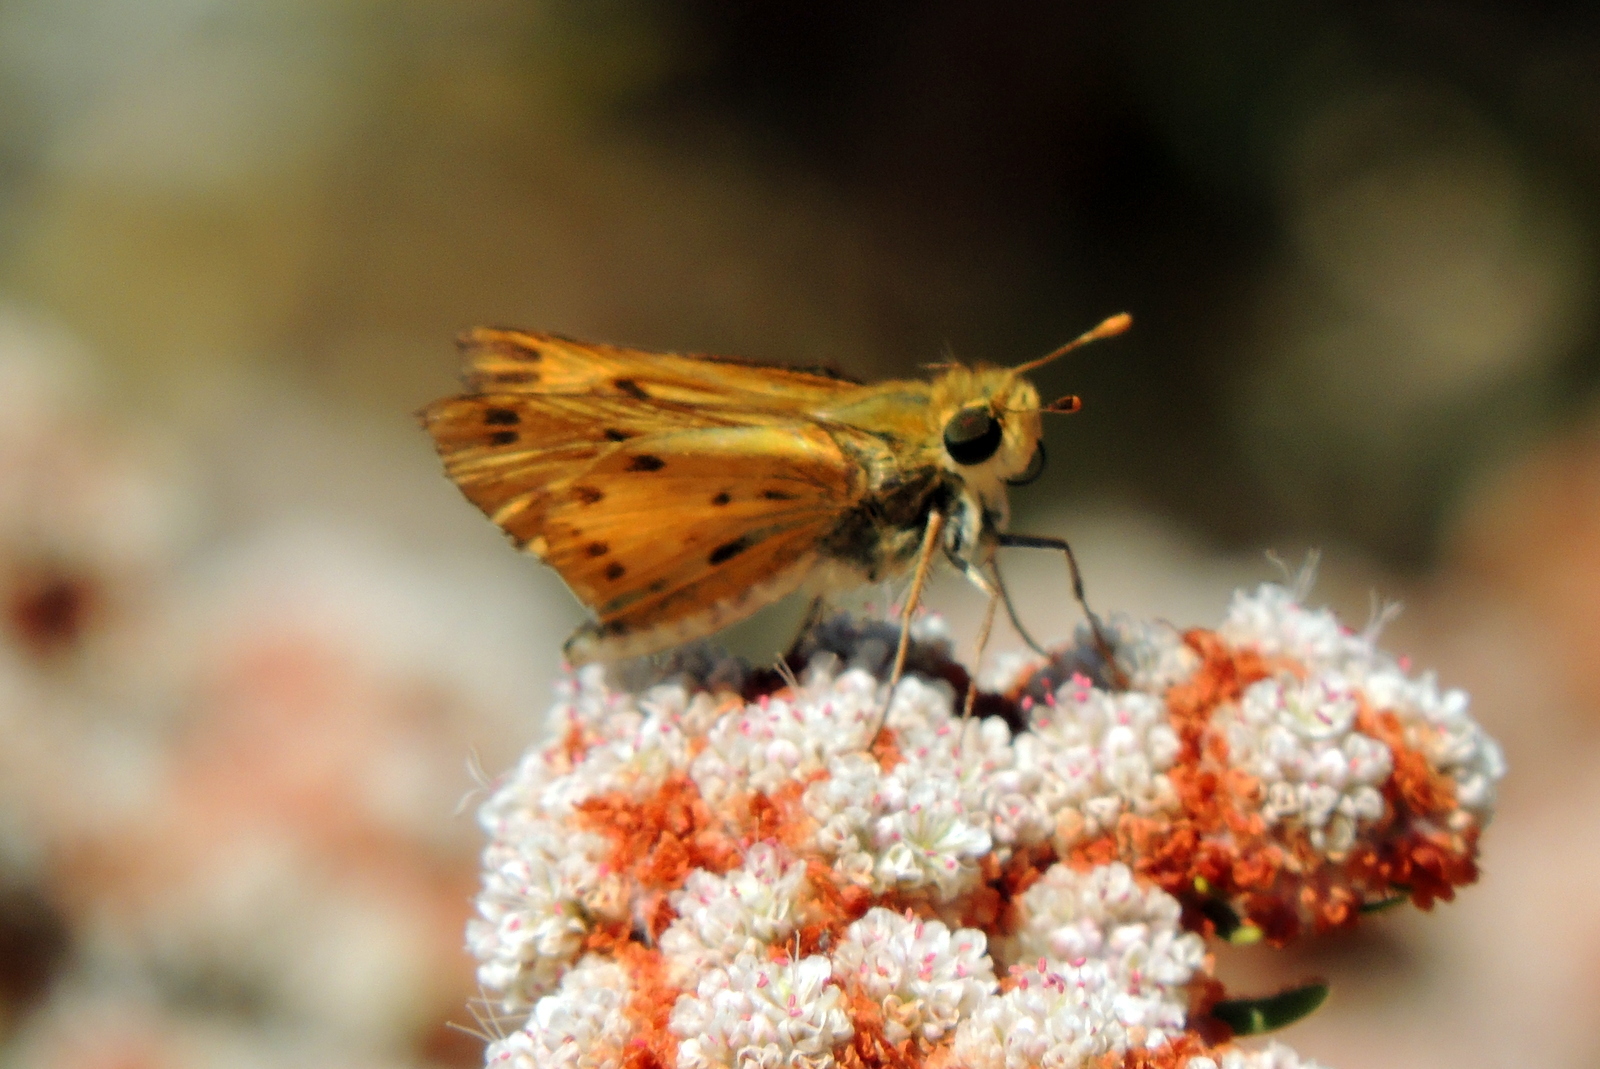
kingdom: Animalia
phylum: Arthropoda
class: Insecta
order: Lepidoptera
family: Hesperiidae
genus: Hylephila
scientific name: Hylephila phyleus
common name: Fiery skipper
